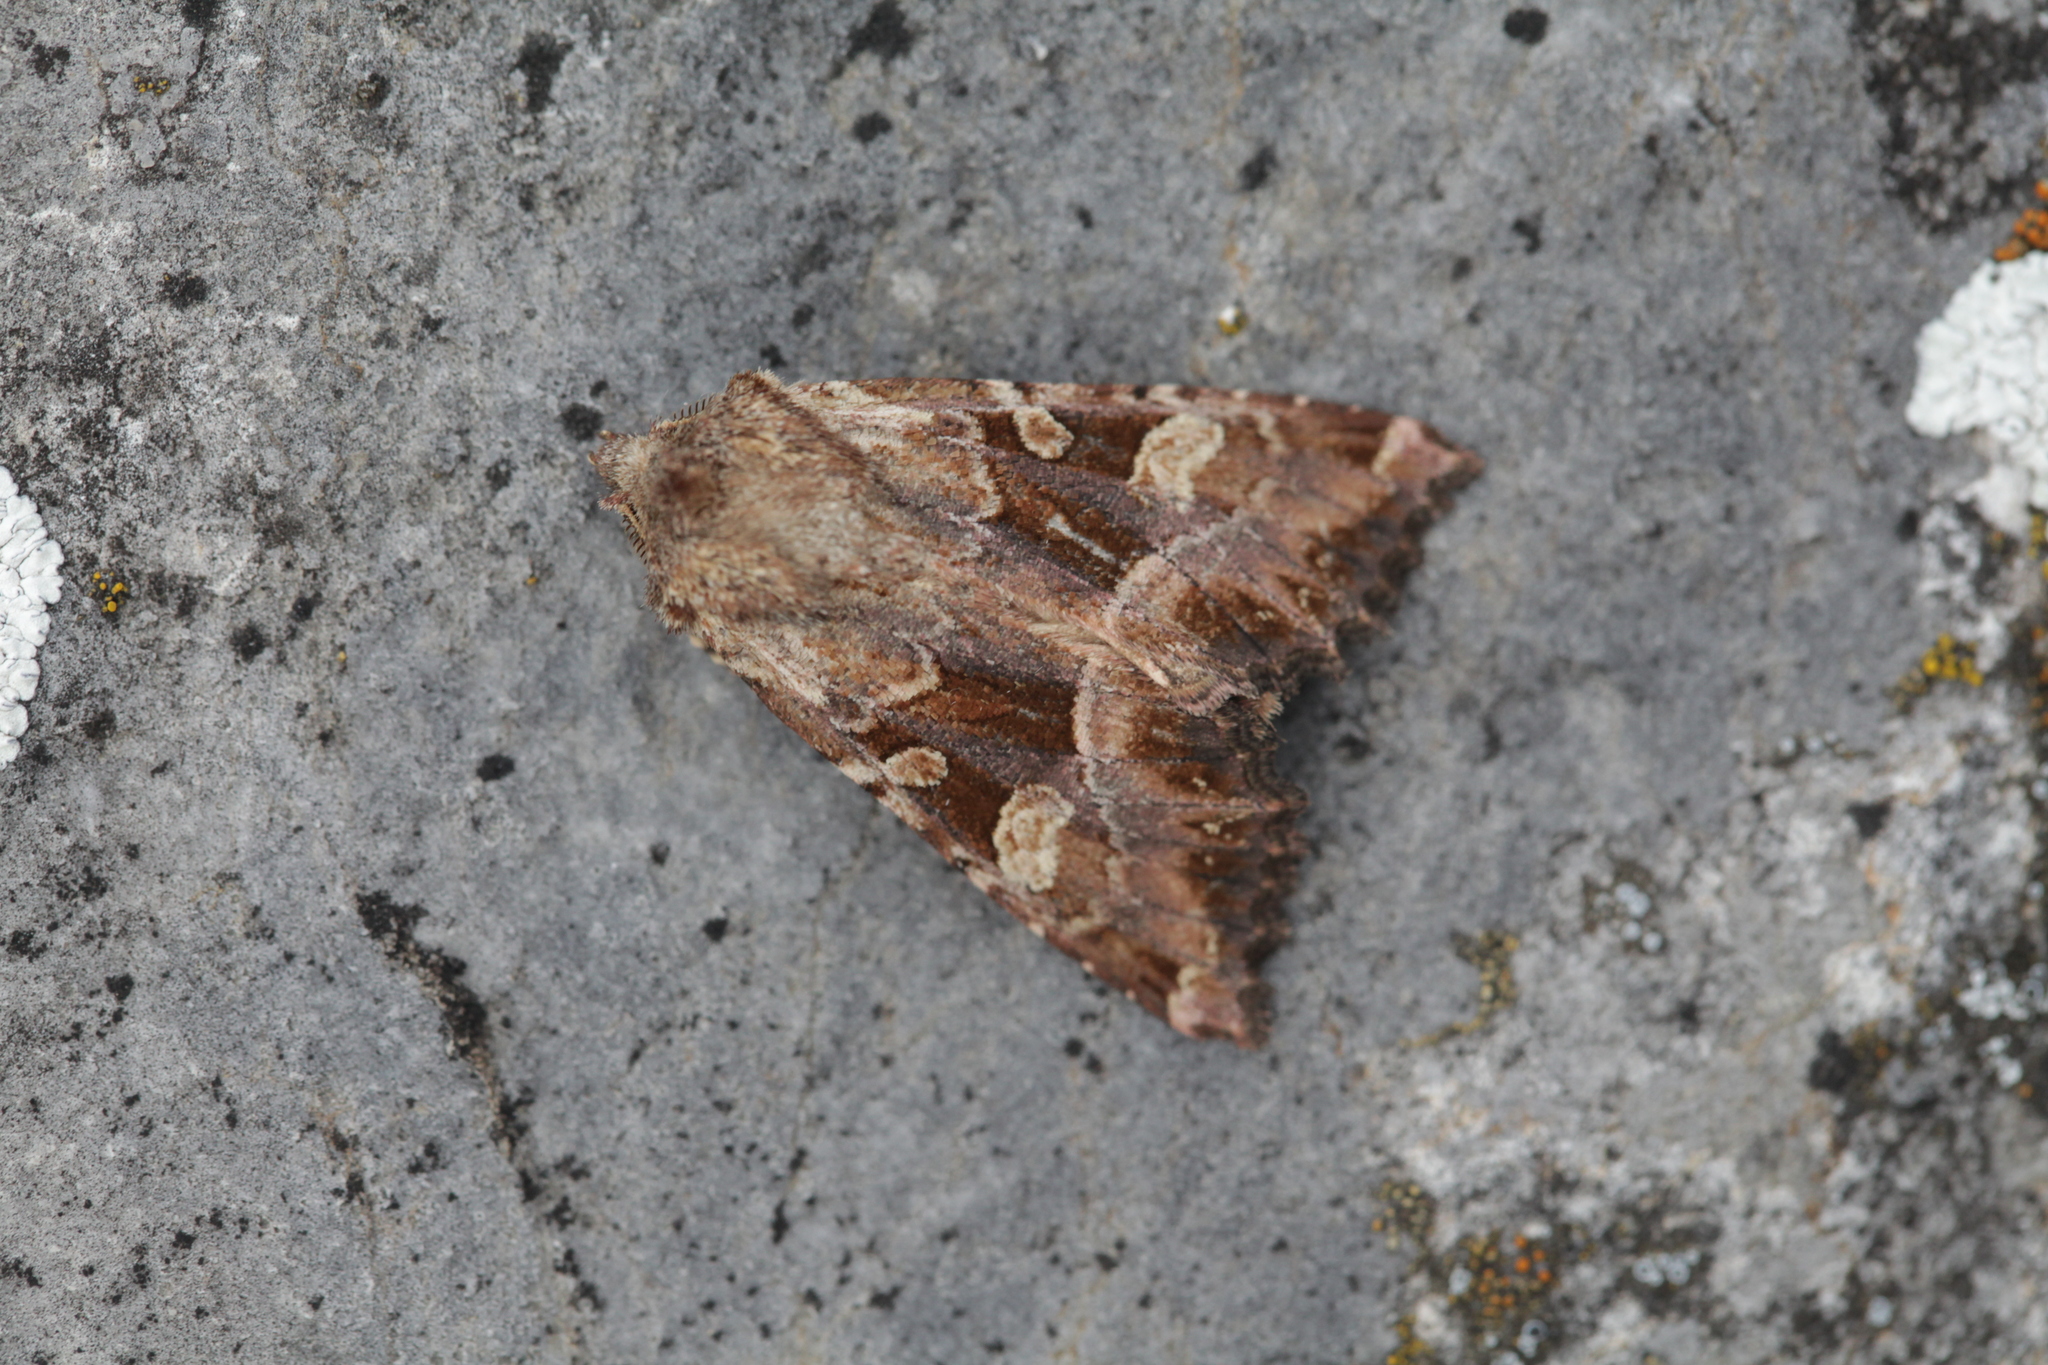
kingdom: Animalia
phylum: Arthropoda
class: Insecta
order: Lepidoptera
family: Noctuidae
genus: Blepharita
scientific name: Blepharita amica
